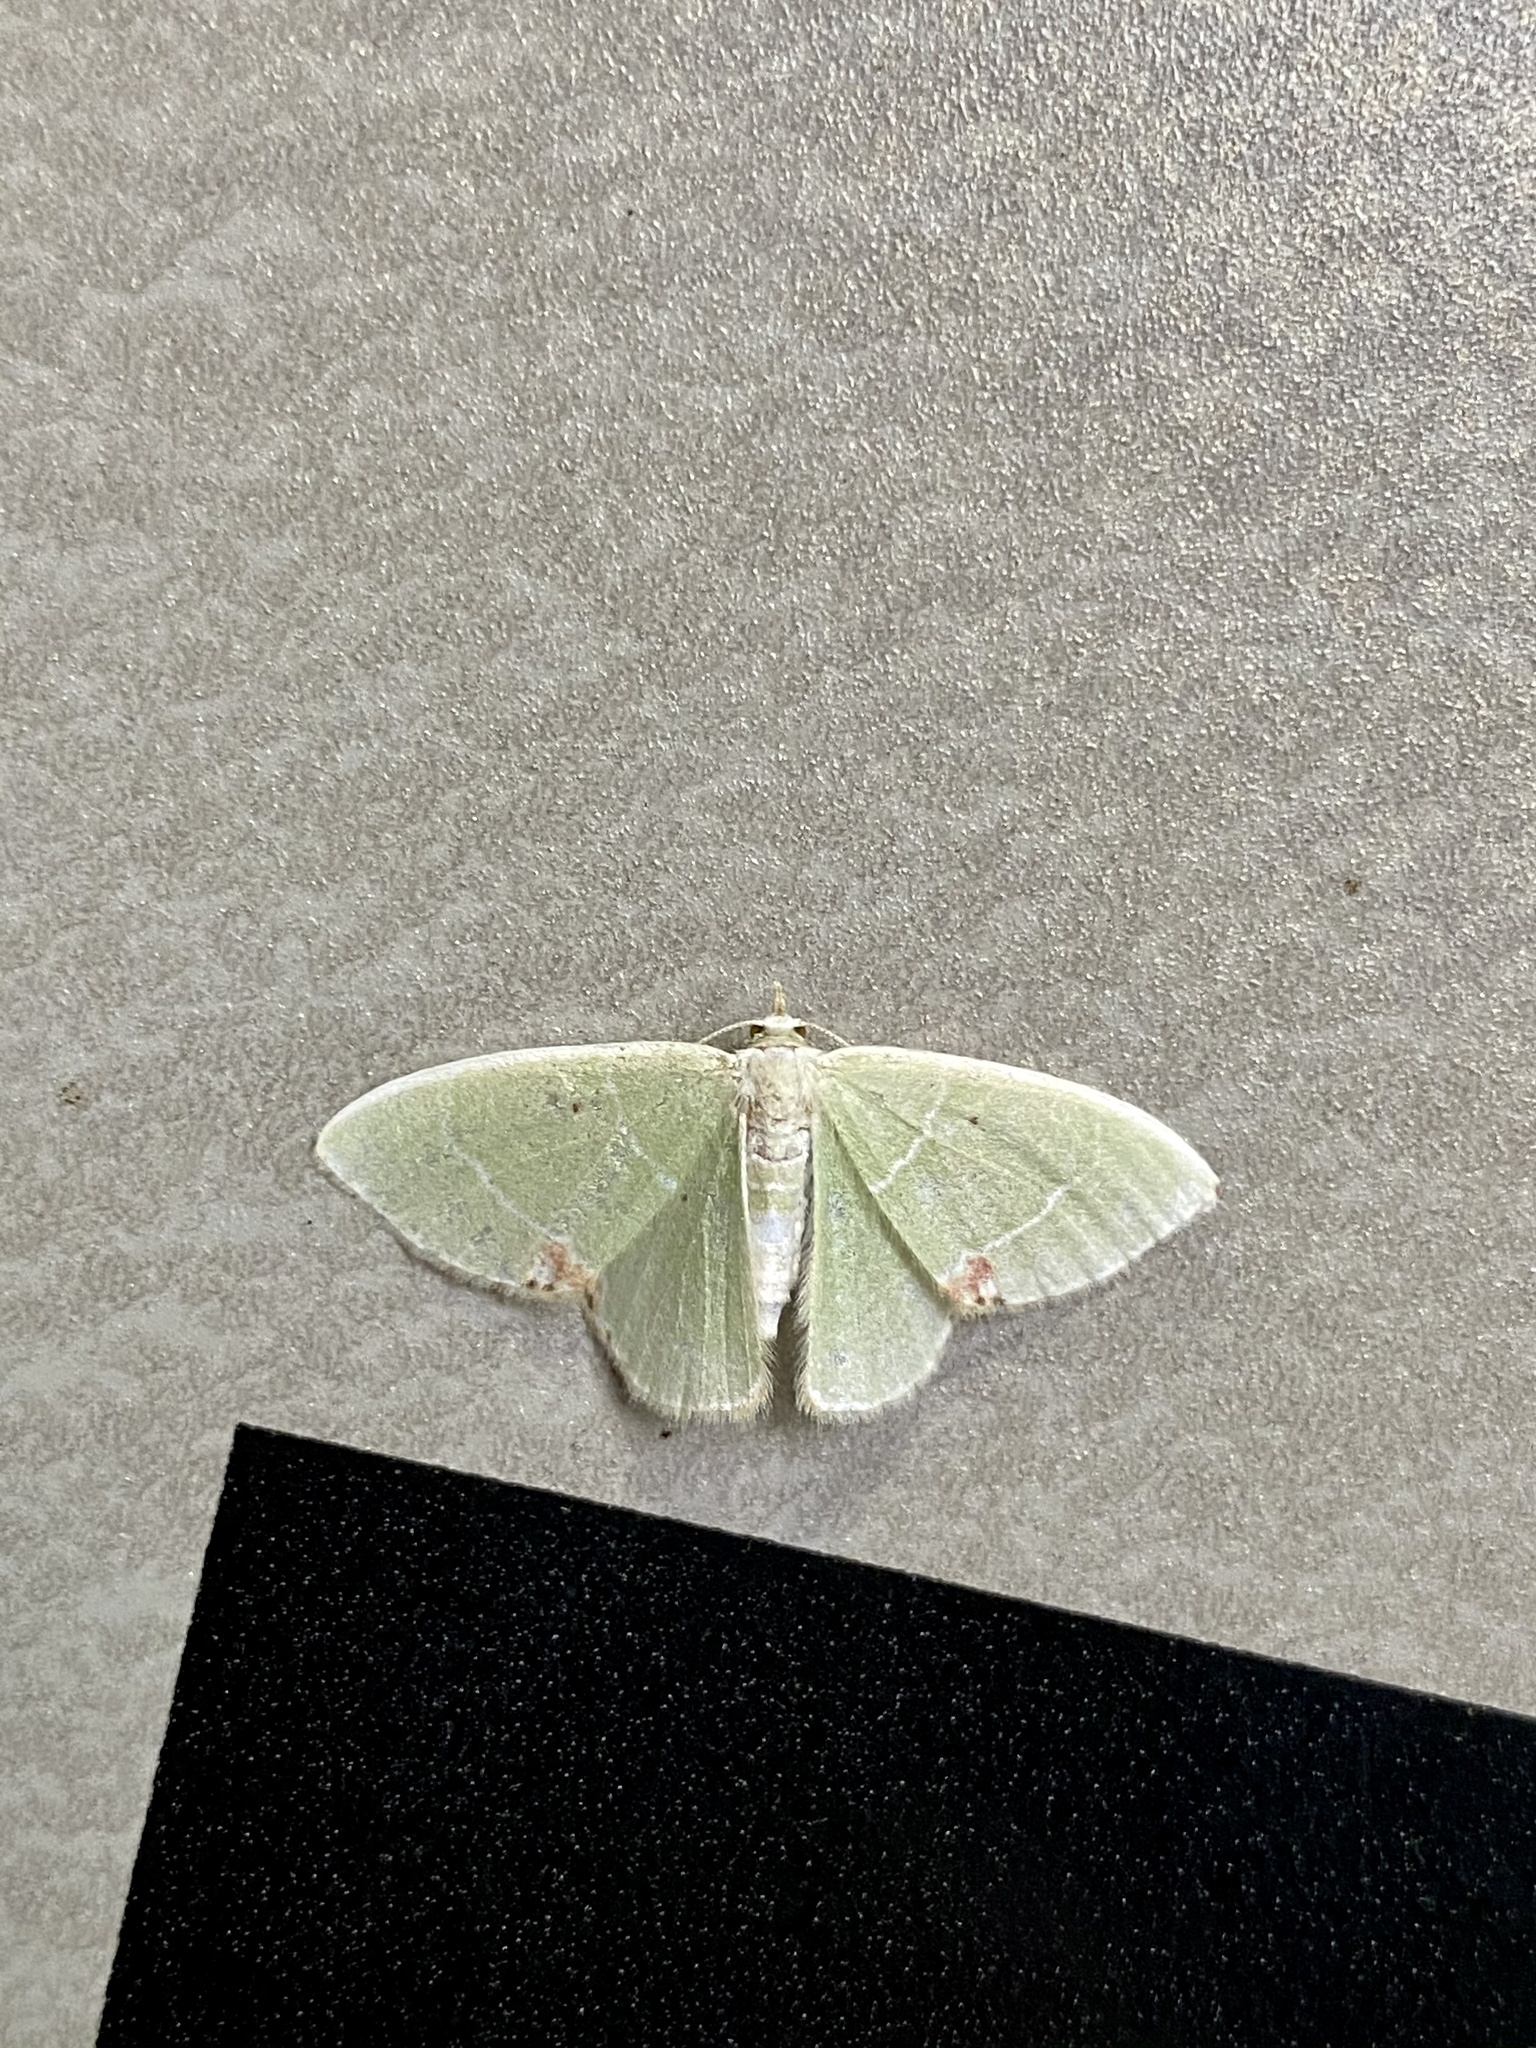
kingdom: Animalia
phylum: Arthropoda
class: Insecta
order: Lepidoptera
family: Geometridae
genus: Comibaena
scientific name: Comibaena amoenaria
